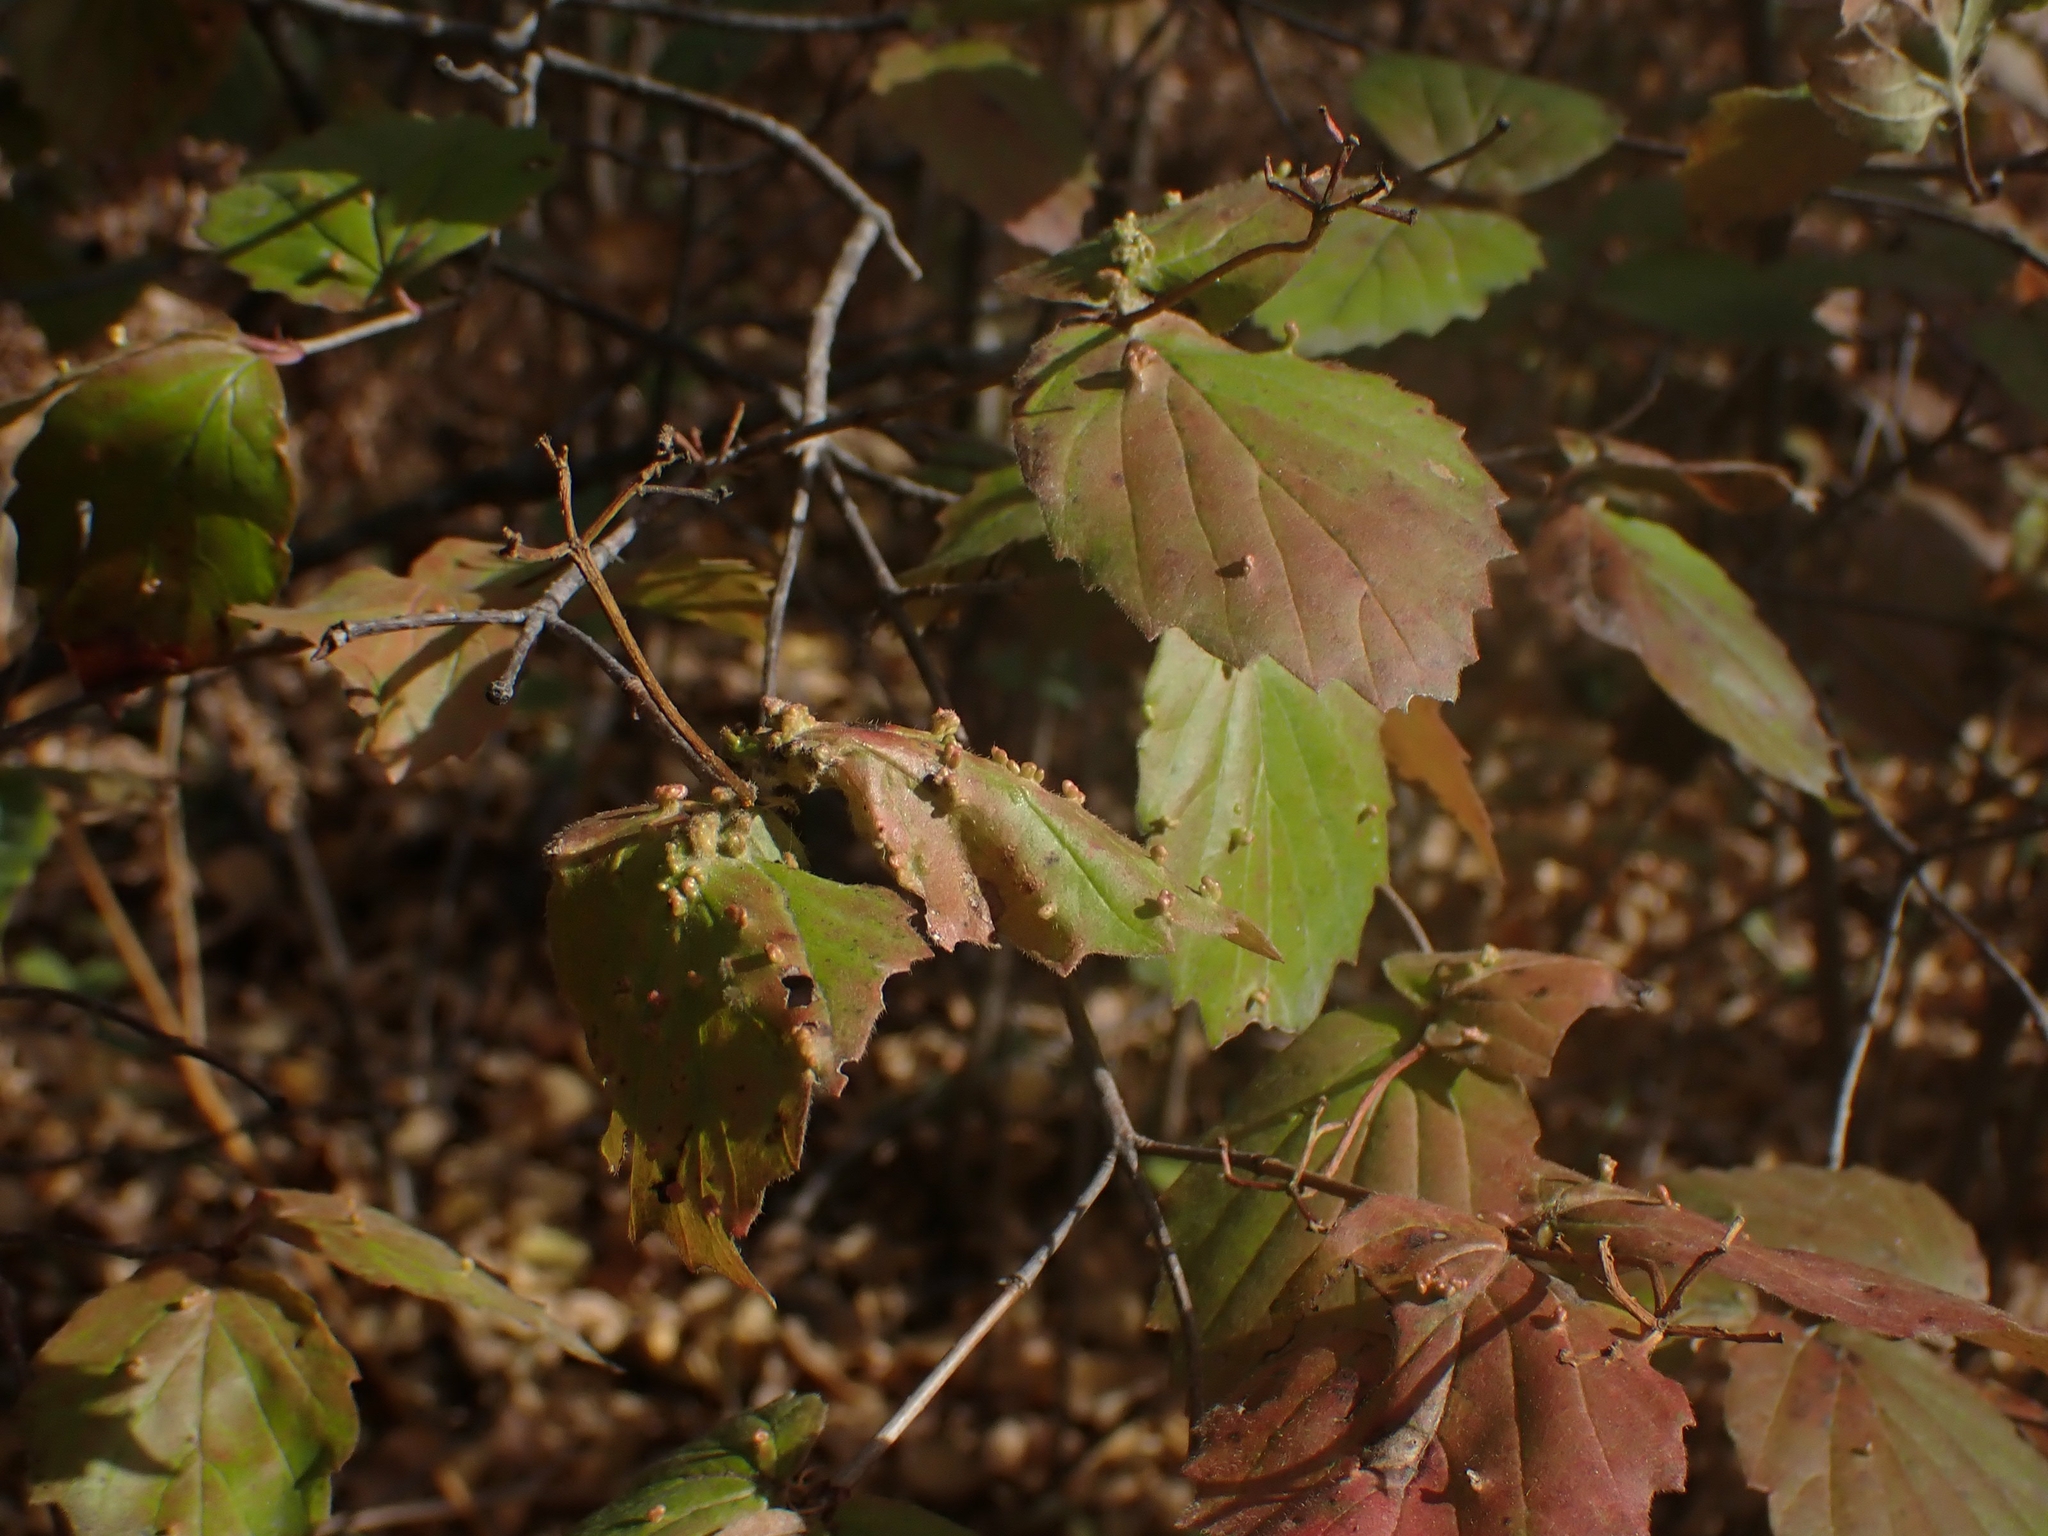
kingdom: Plantae
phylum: Tracheophyta
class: Magnoliopsida
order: Dipsacales
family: Viburnaceae
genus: Viburnum
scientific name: Viburnum rafinesqueanum
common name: Downy arrow-wood
